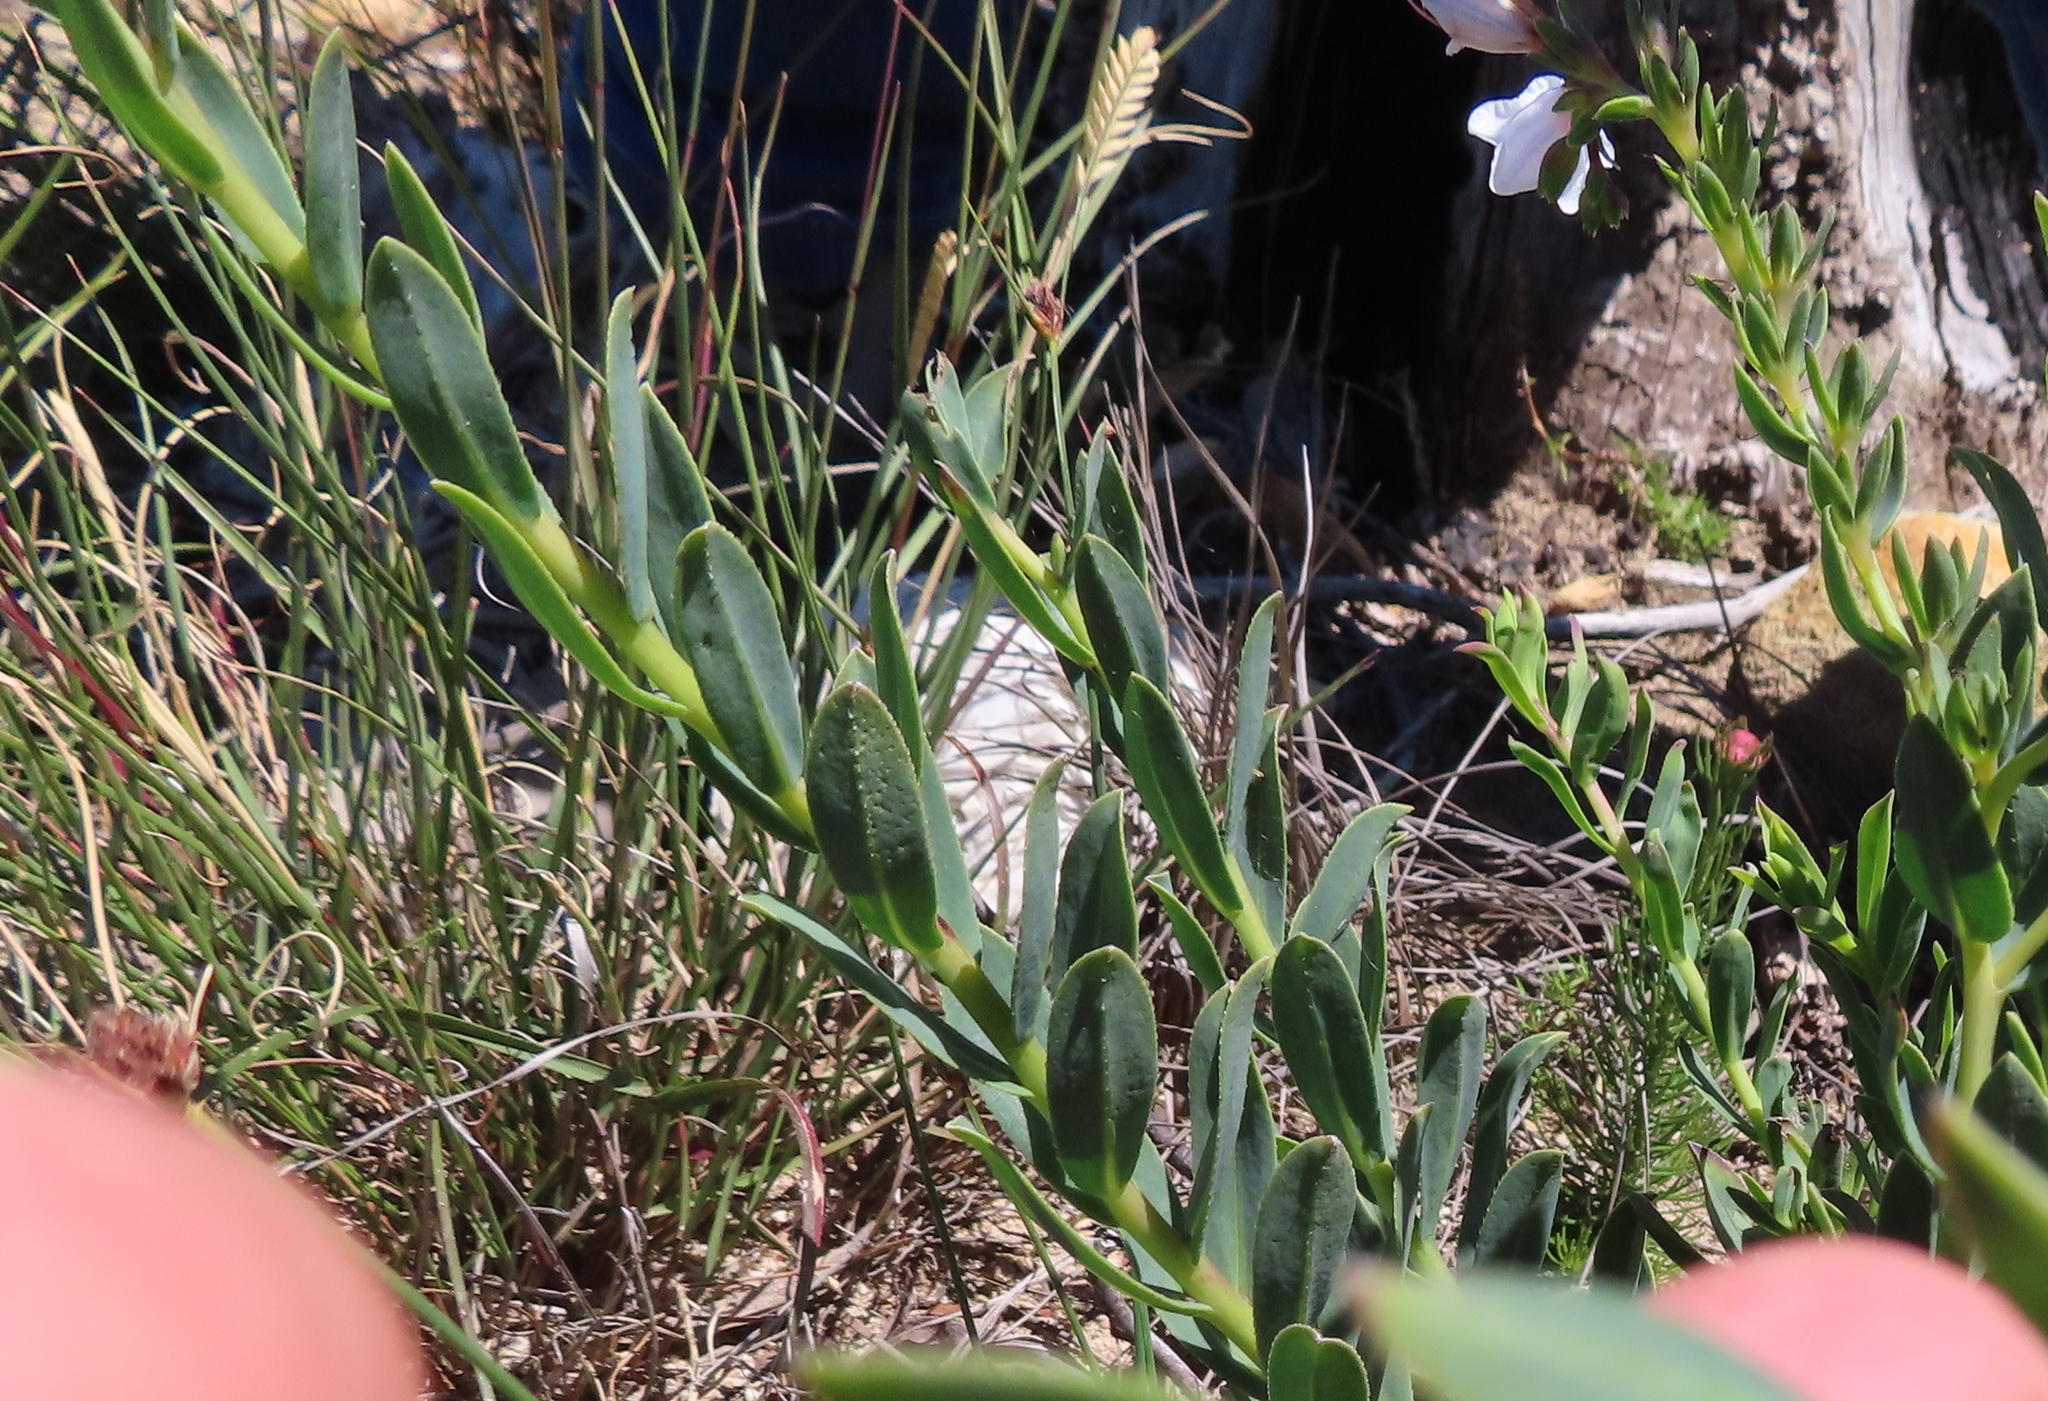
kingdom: Plantae
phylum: Tracheophyta
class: Magnoliopsida
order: Boraginales
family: Boraginaceae
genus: Lobostemon
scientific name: Lobostemon hottentoticus
